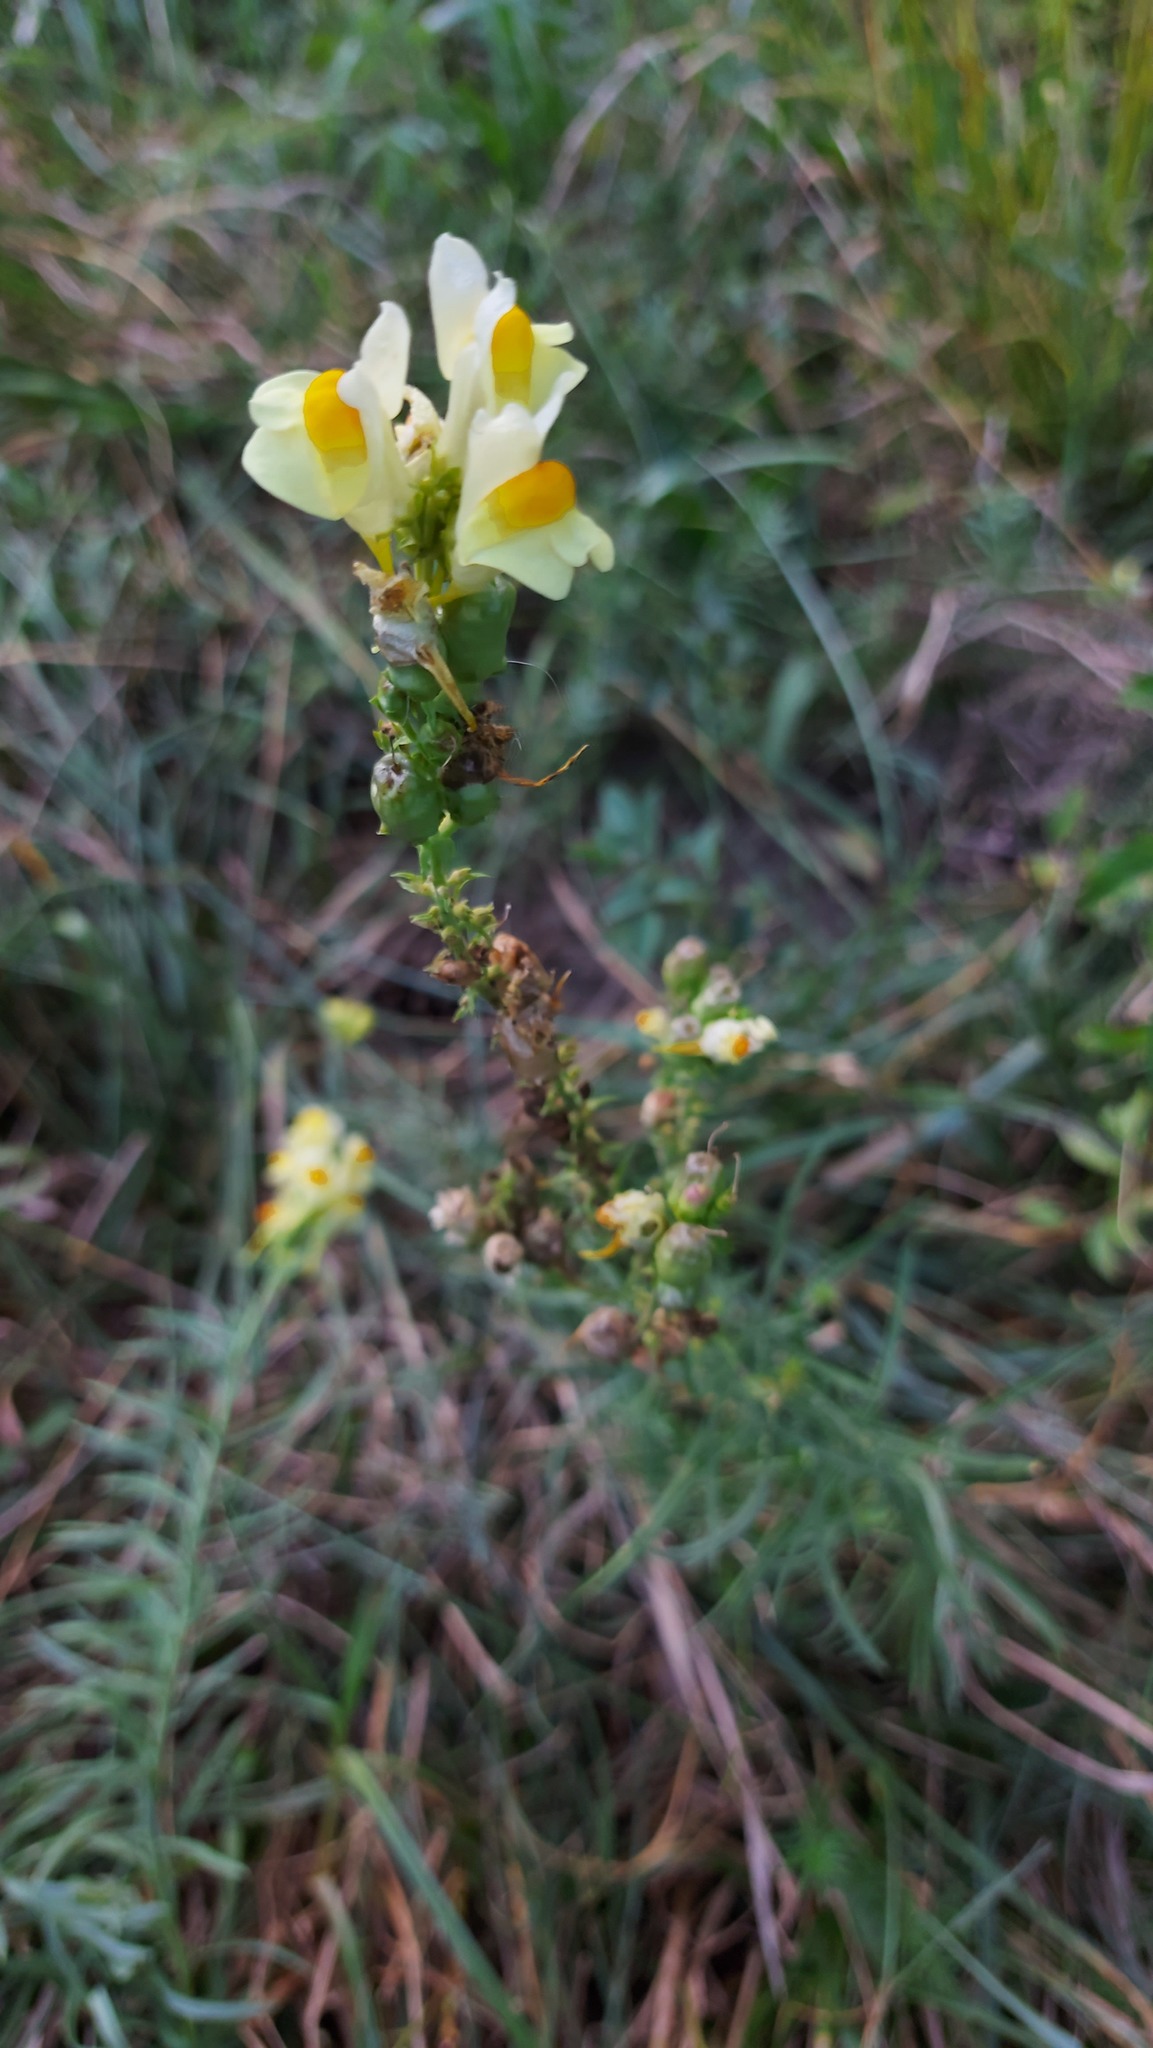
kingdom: Plantae
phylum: Tracheophyta
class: Magnoliopsida
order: Lamiales
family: Plantaginaceae
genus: Linaria
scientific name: Linaria vulgaris
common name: Butter and eggs
